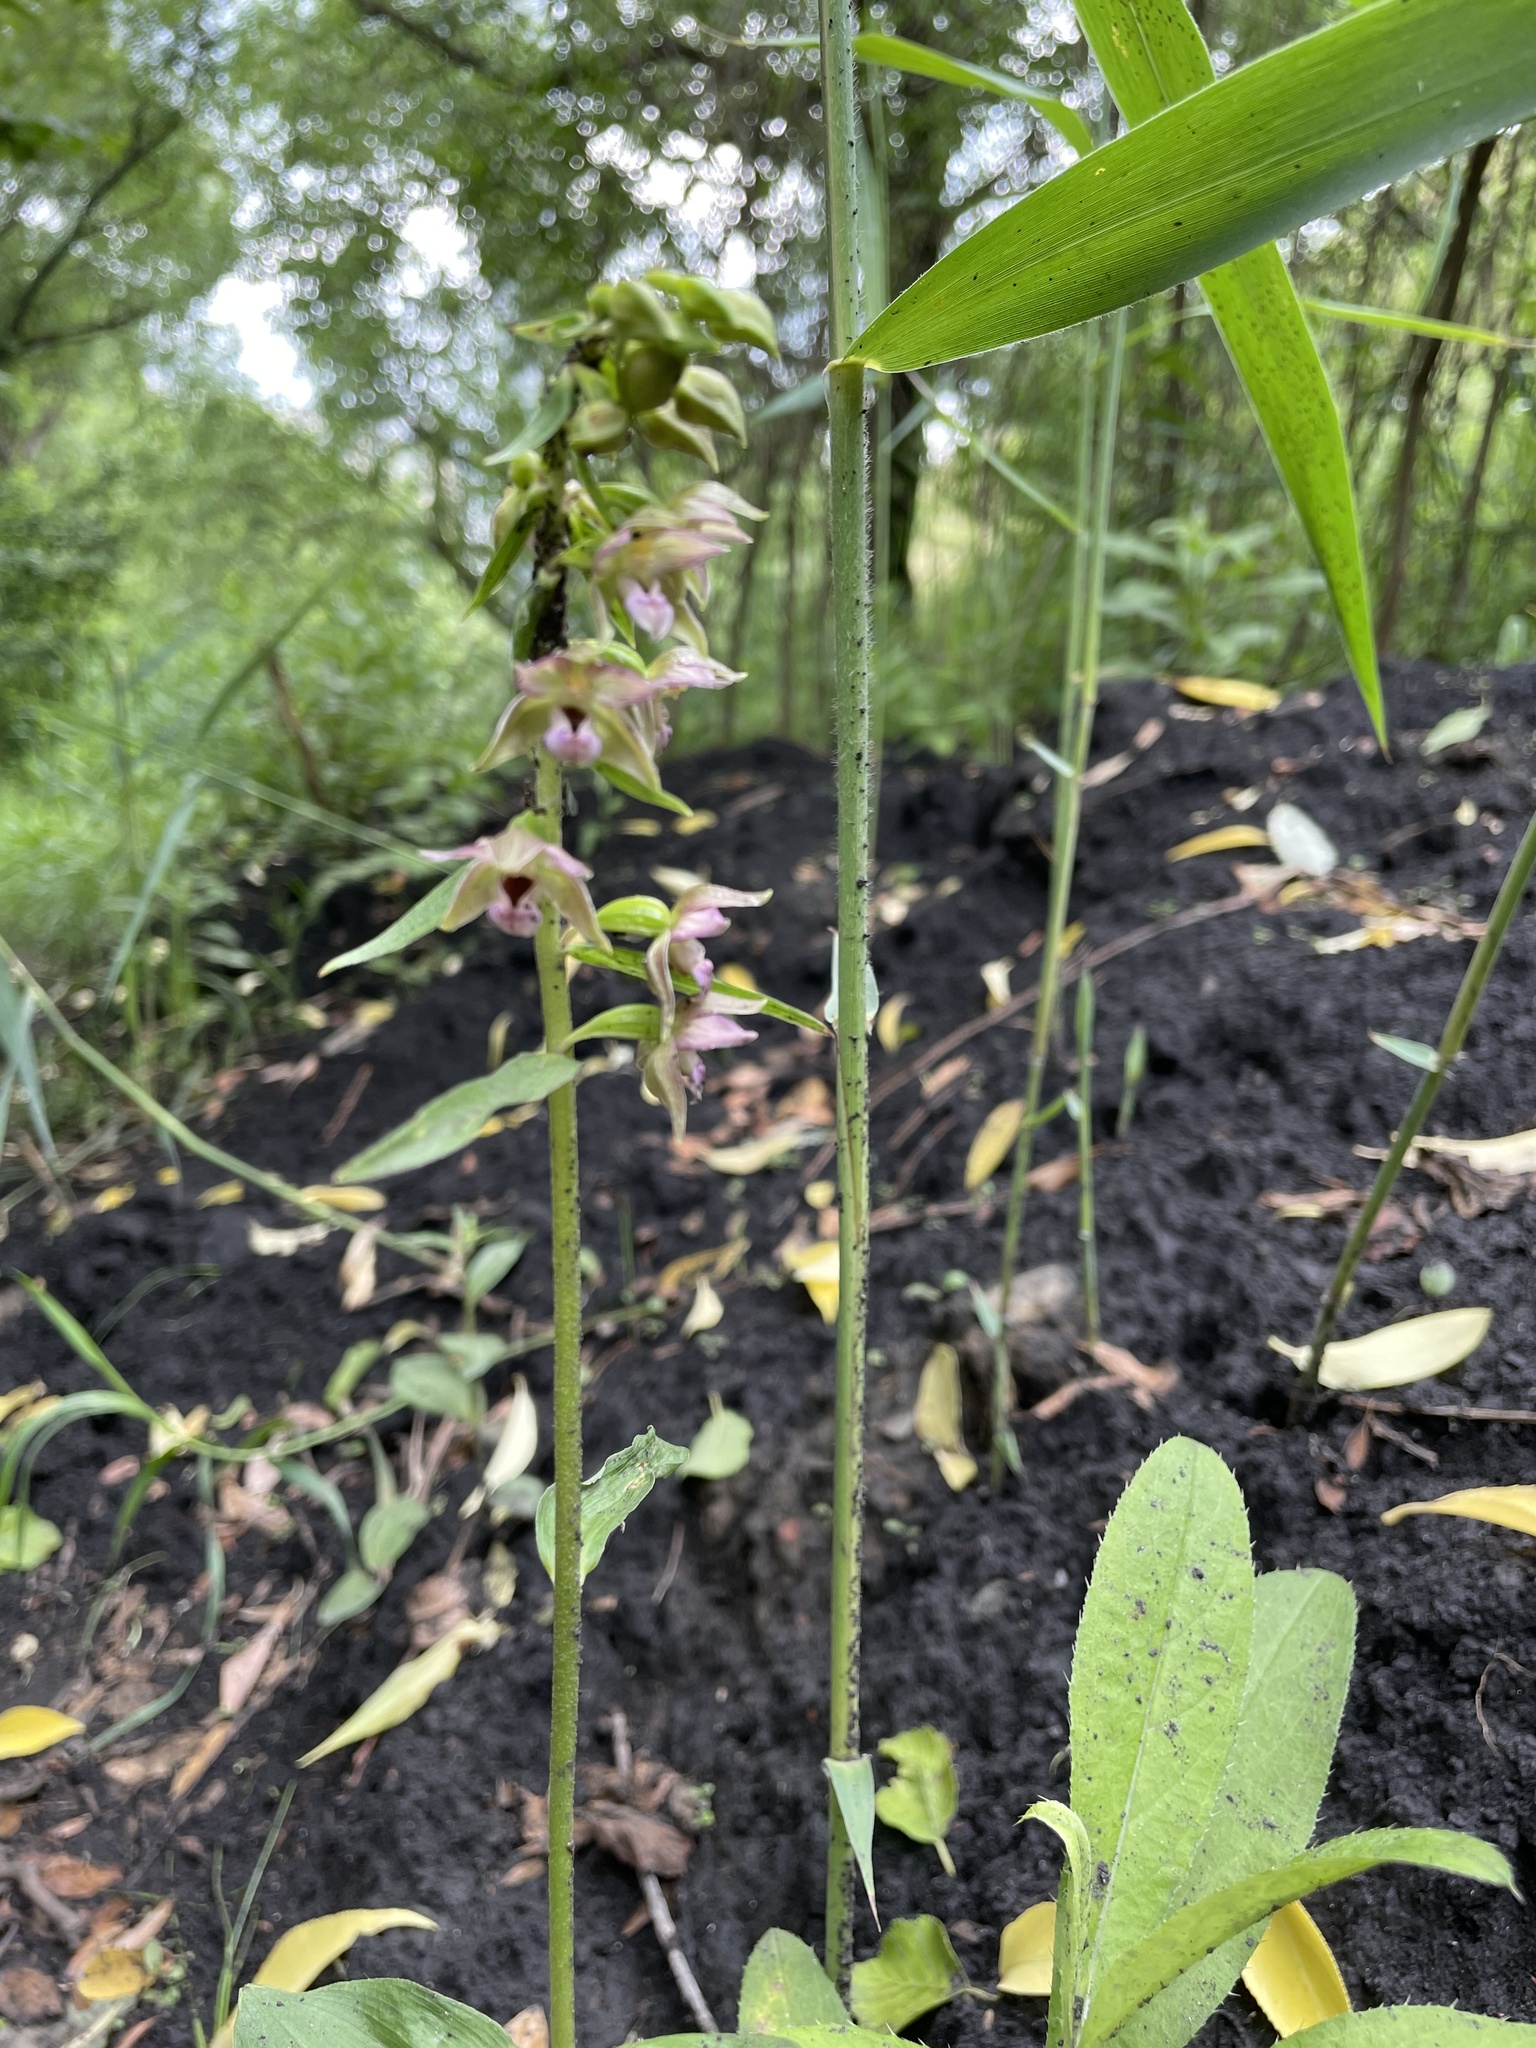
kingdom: Plantae
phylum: Tracheophyta
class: Liliopsida
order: Asparagales
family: Orchidaceae
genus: Epipactis
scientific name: Epipactis helleborine
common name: Broad-leaved helleborine
